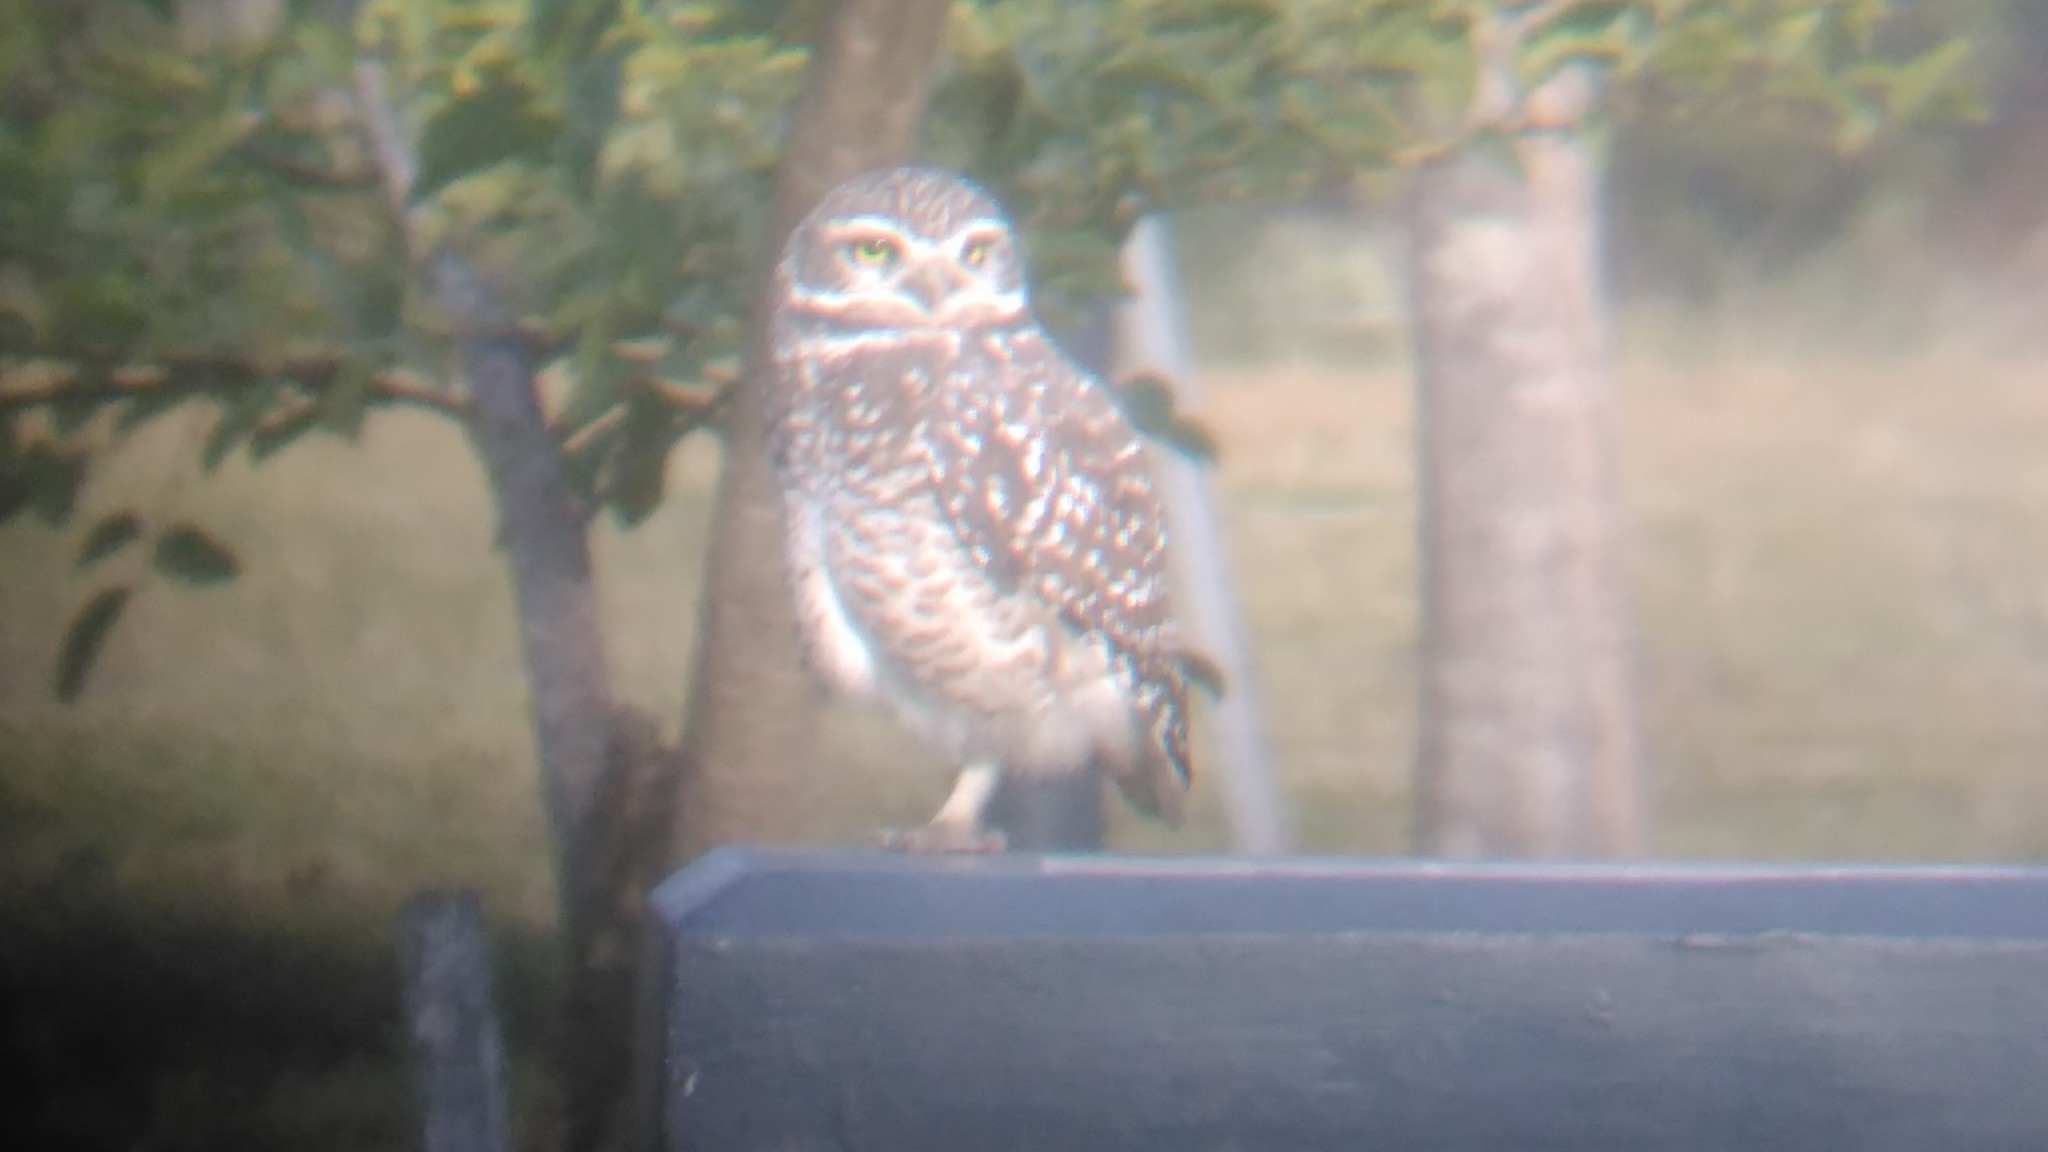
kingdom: Animalia
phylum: Chordata
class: Aves
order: Strigiformes
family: Strigidae
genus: Athene
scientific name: Athene cunicularia
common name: Burrowing owl
